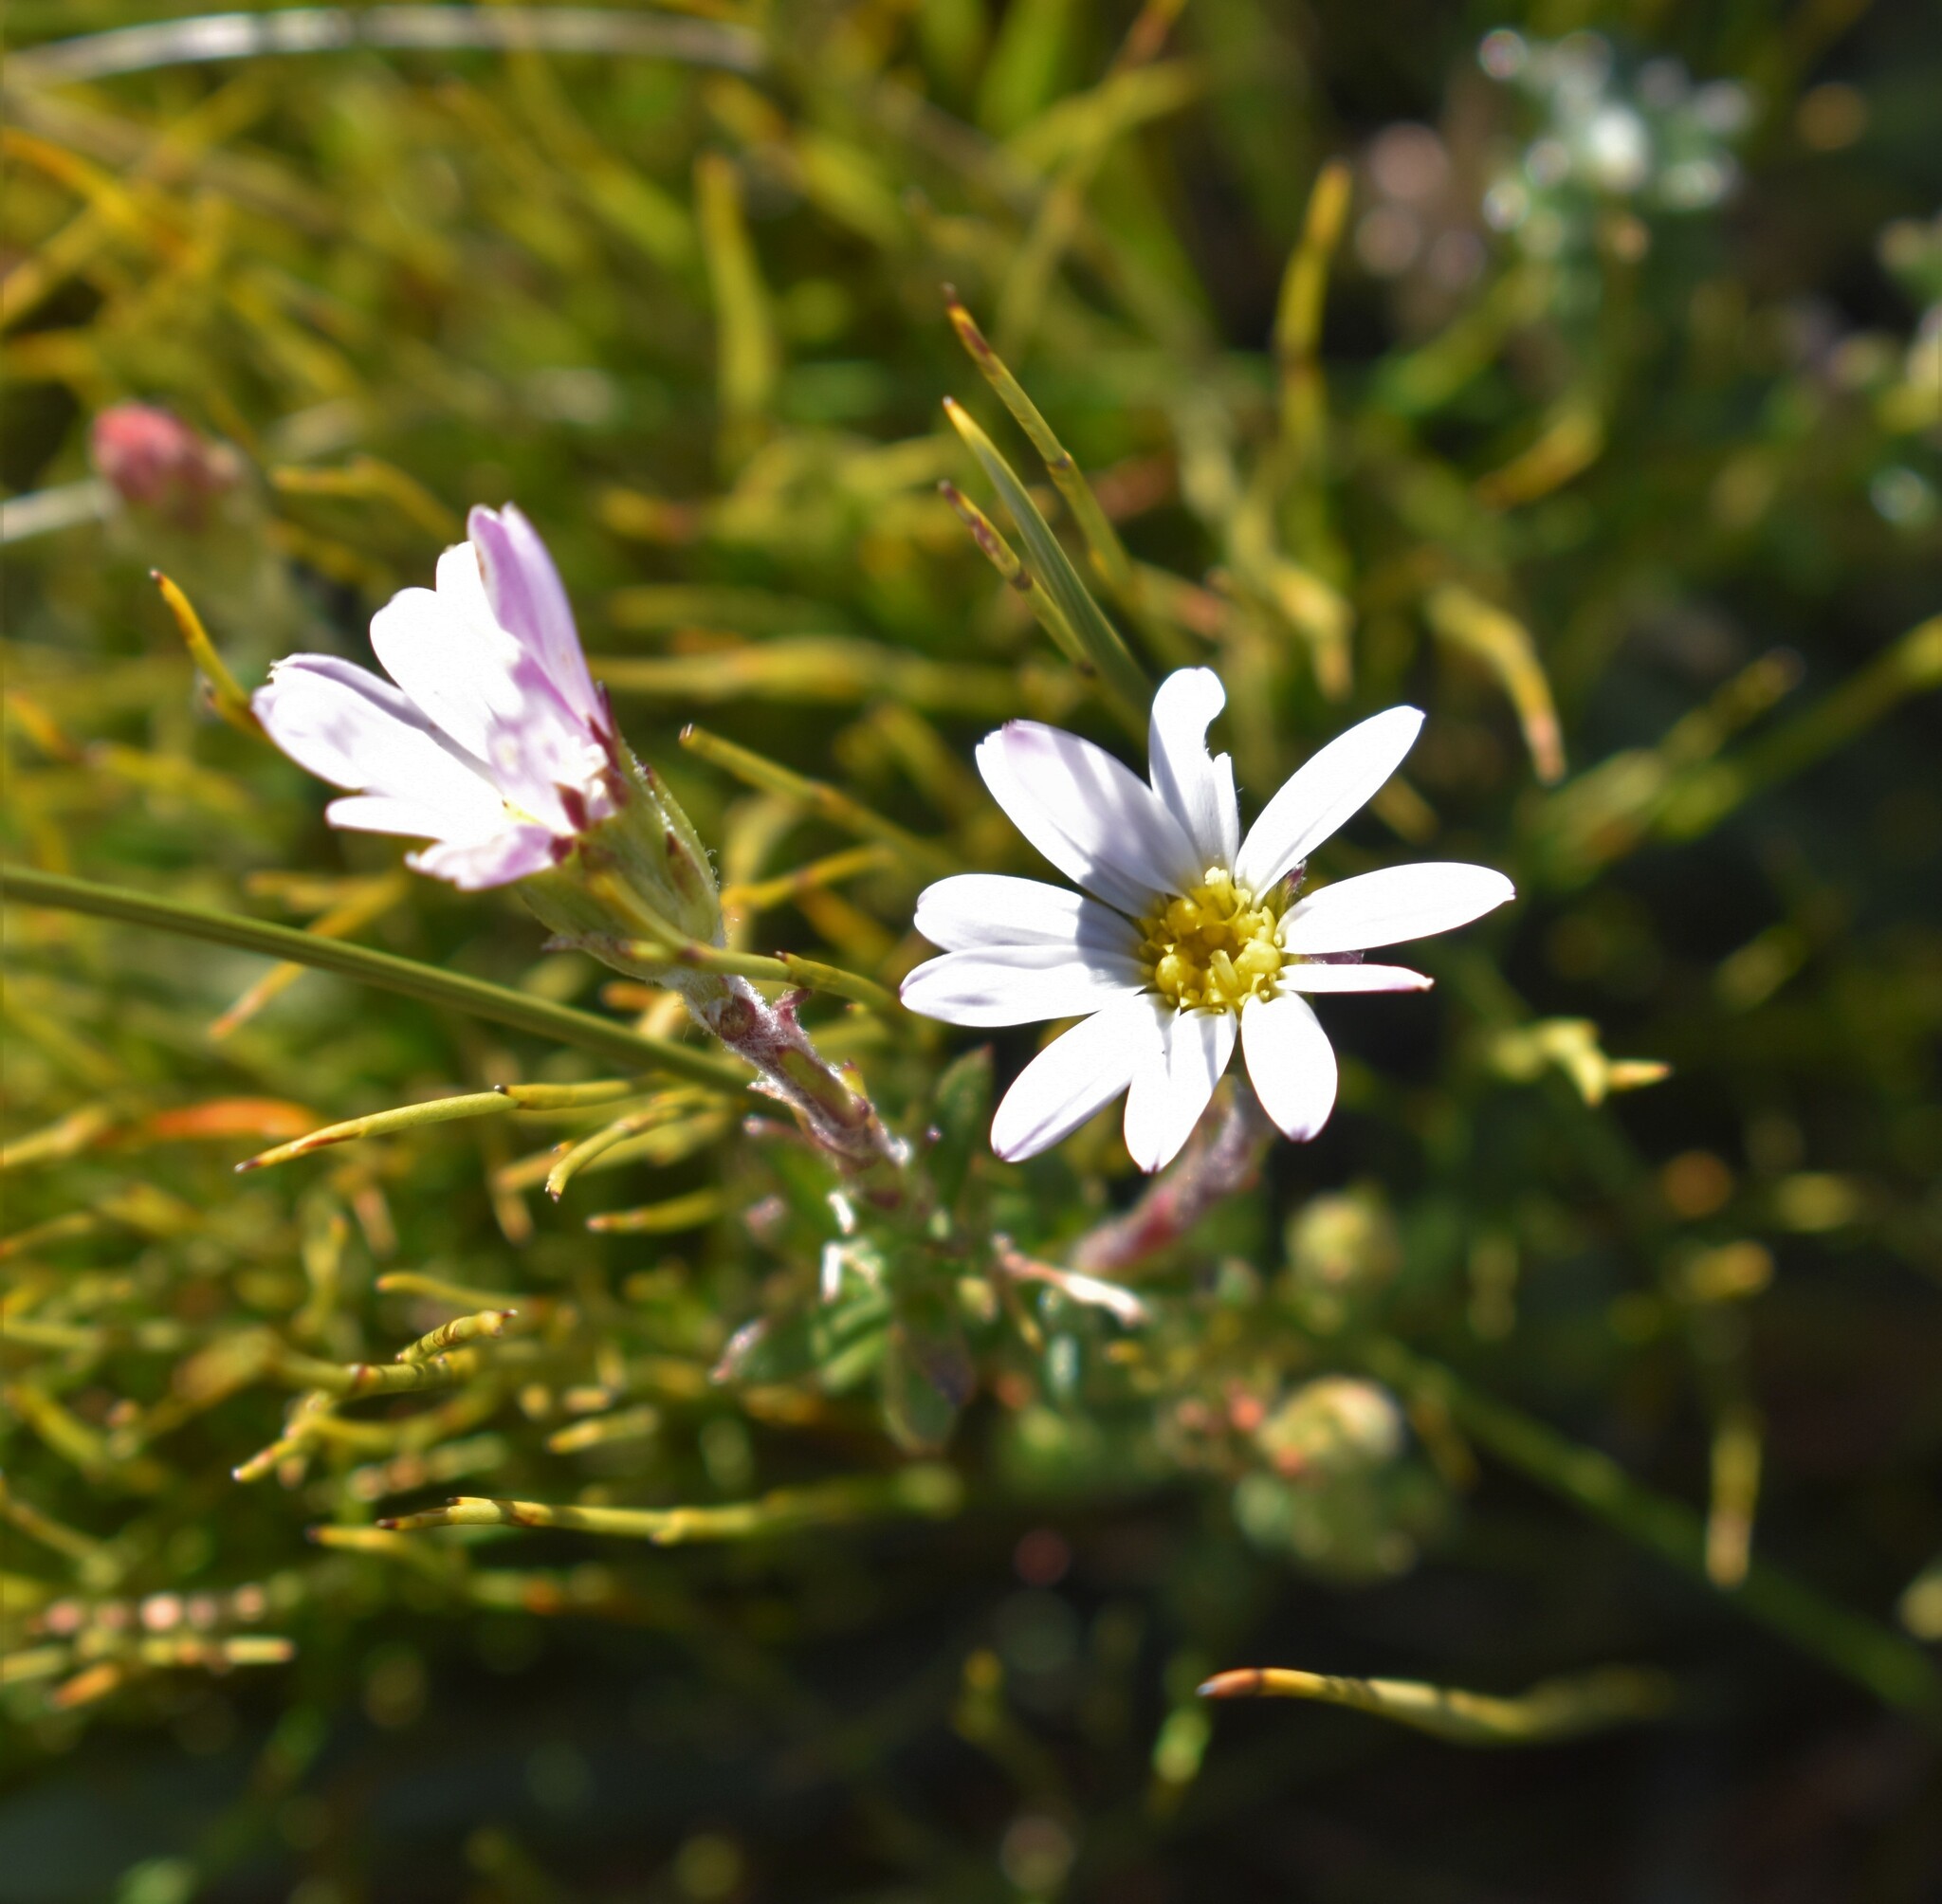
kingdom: Plantae
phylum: Tracheophyta
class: Magnoliopsida
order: Asterales
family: Asteraceae
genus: Zyrphelis
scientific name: Zyrphelis crenata
